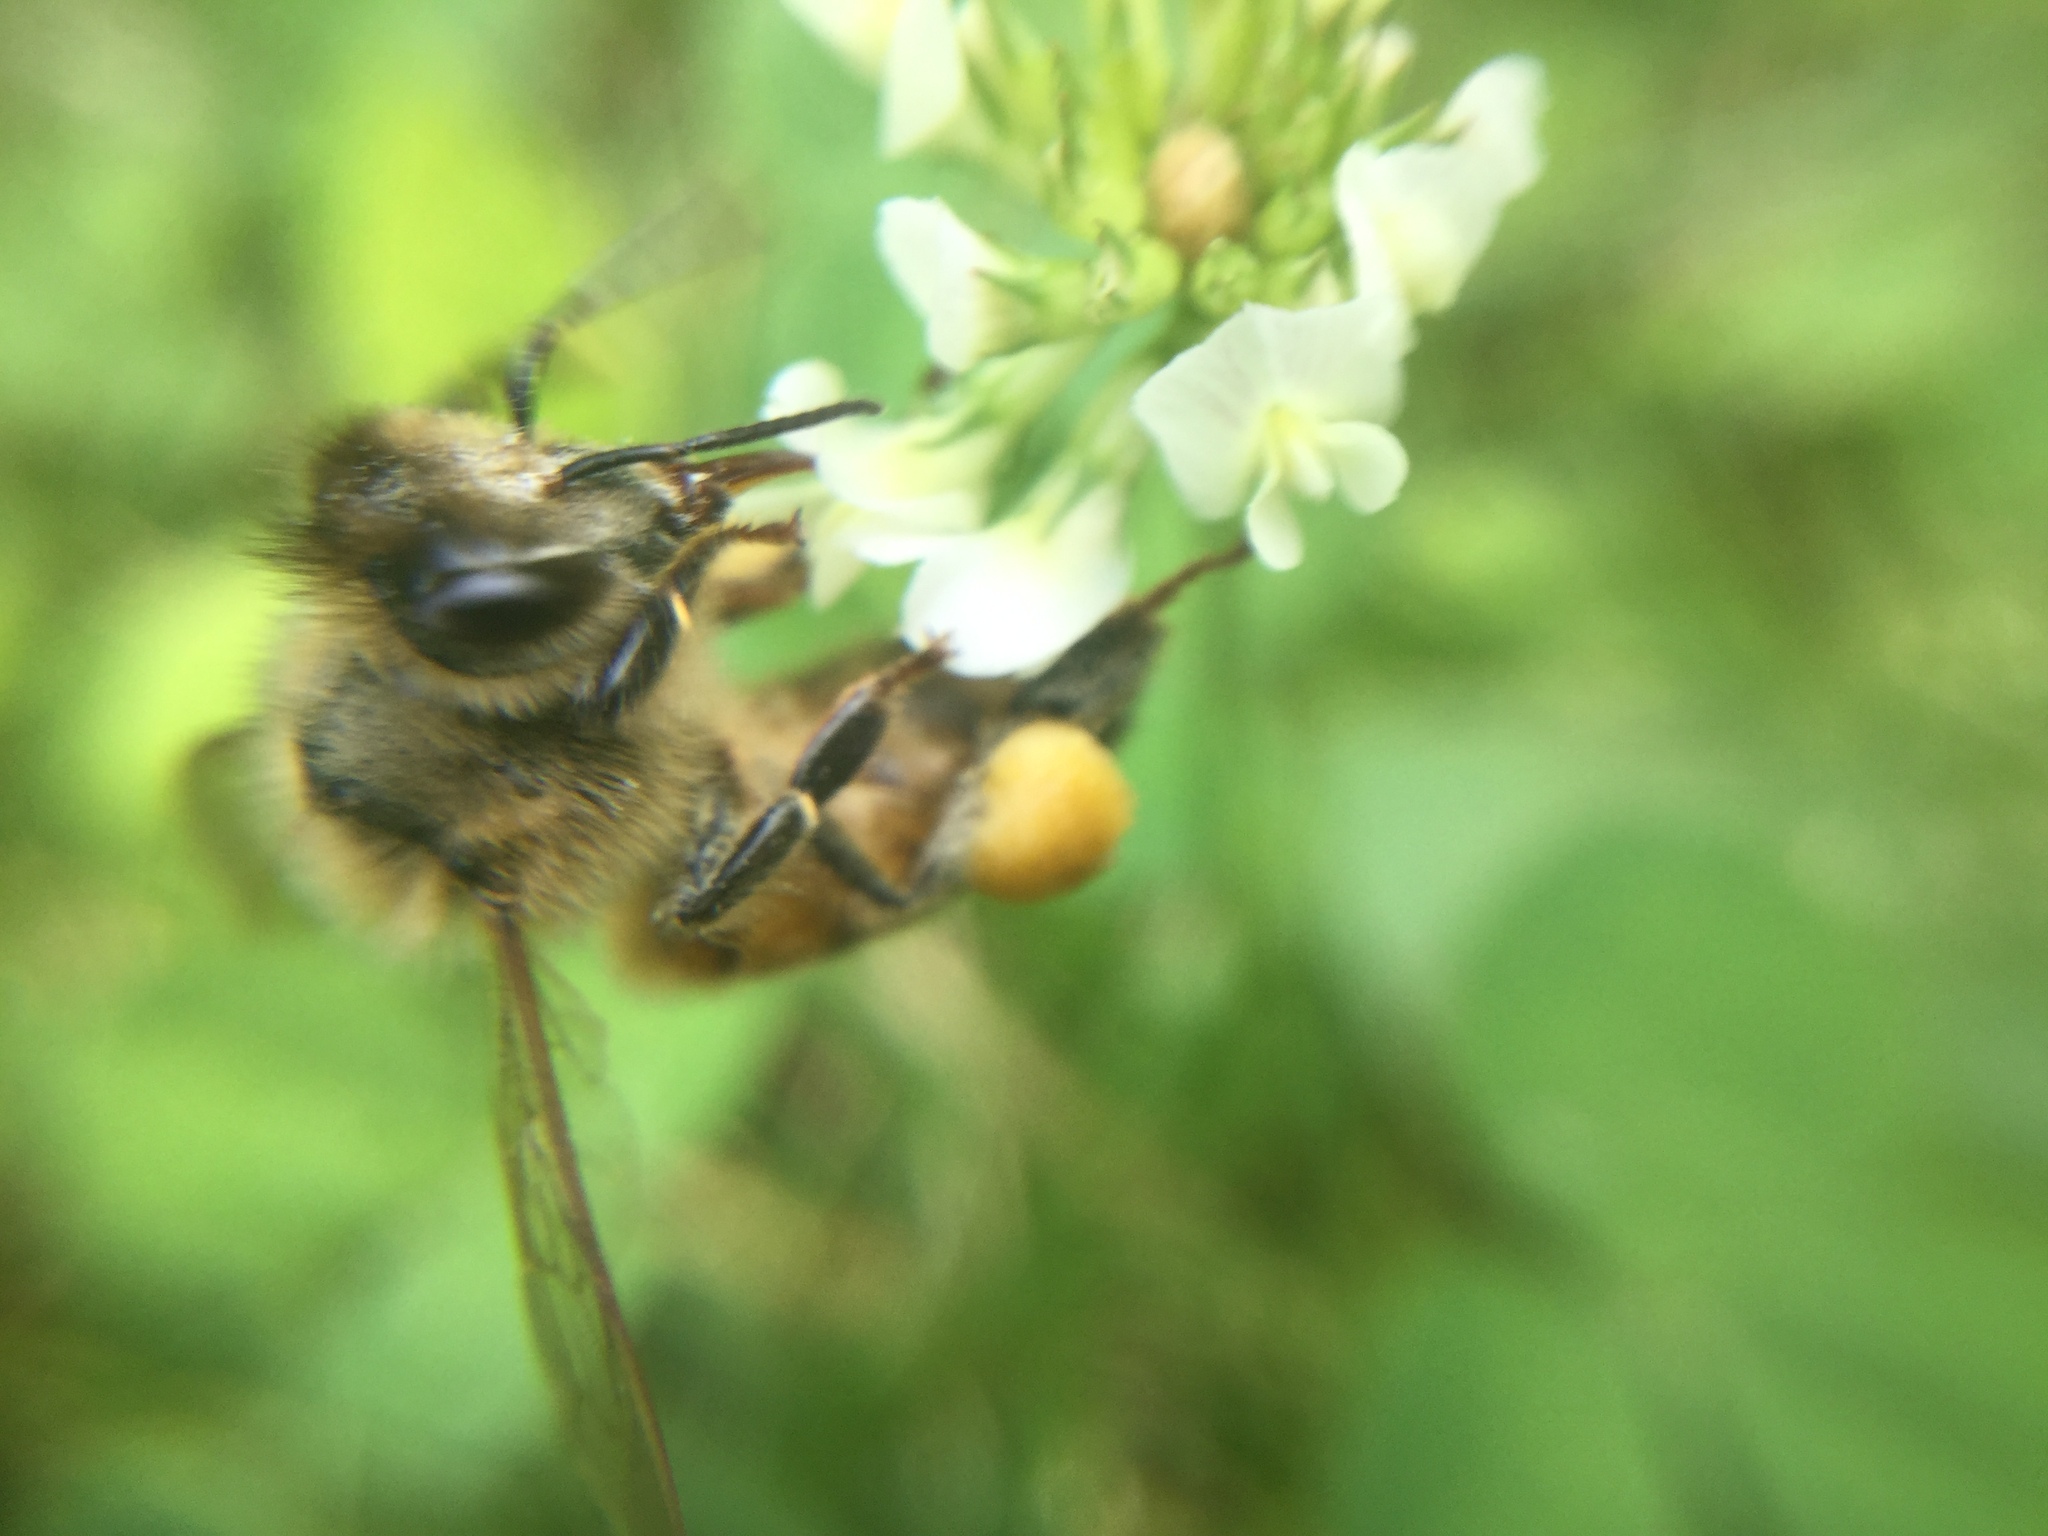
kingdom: Animalia
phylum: Arthropoda
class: Insecta
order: Hymenoptera
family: Apidae
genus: Apis
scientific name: Apis mellifera
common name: Honey bee
